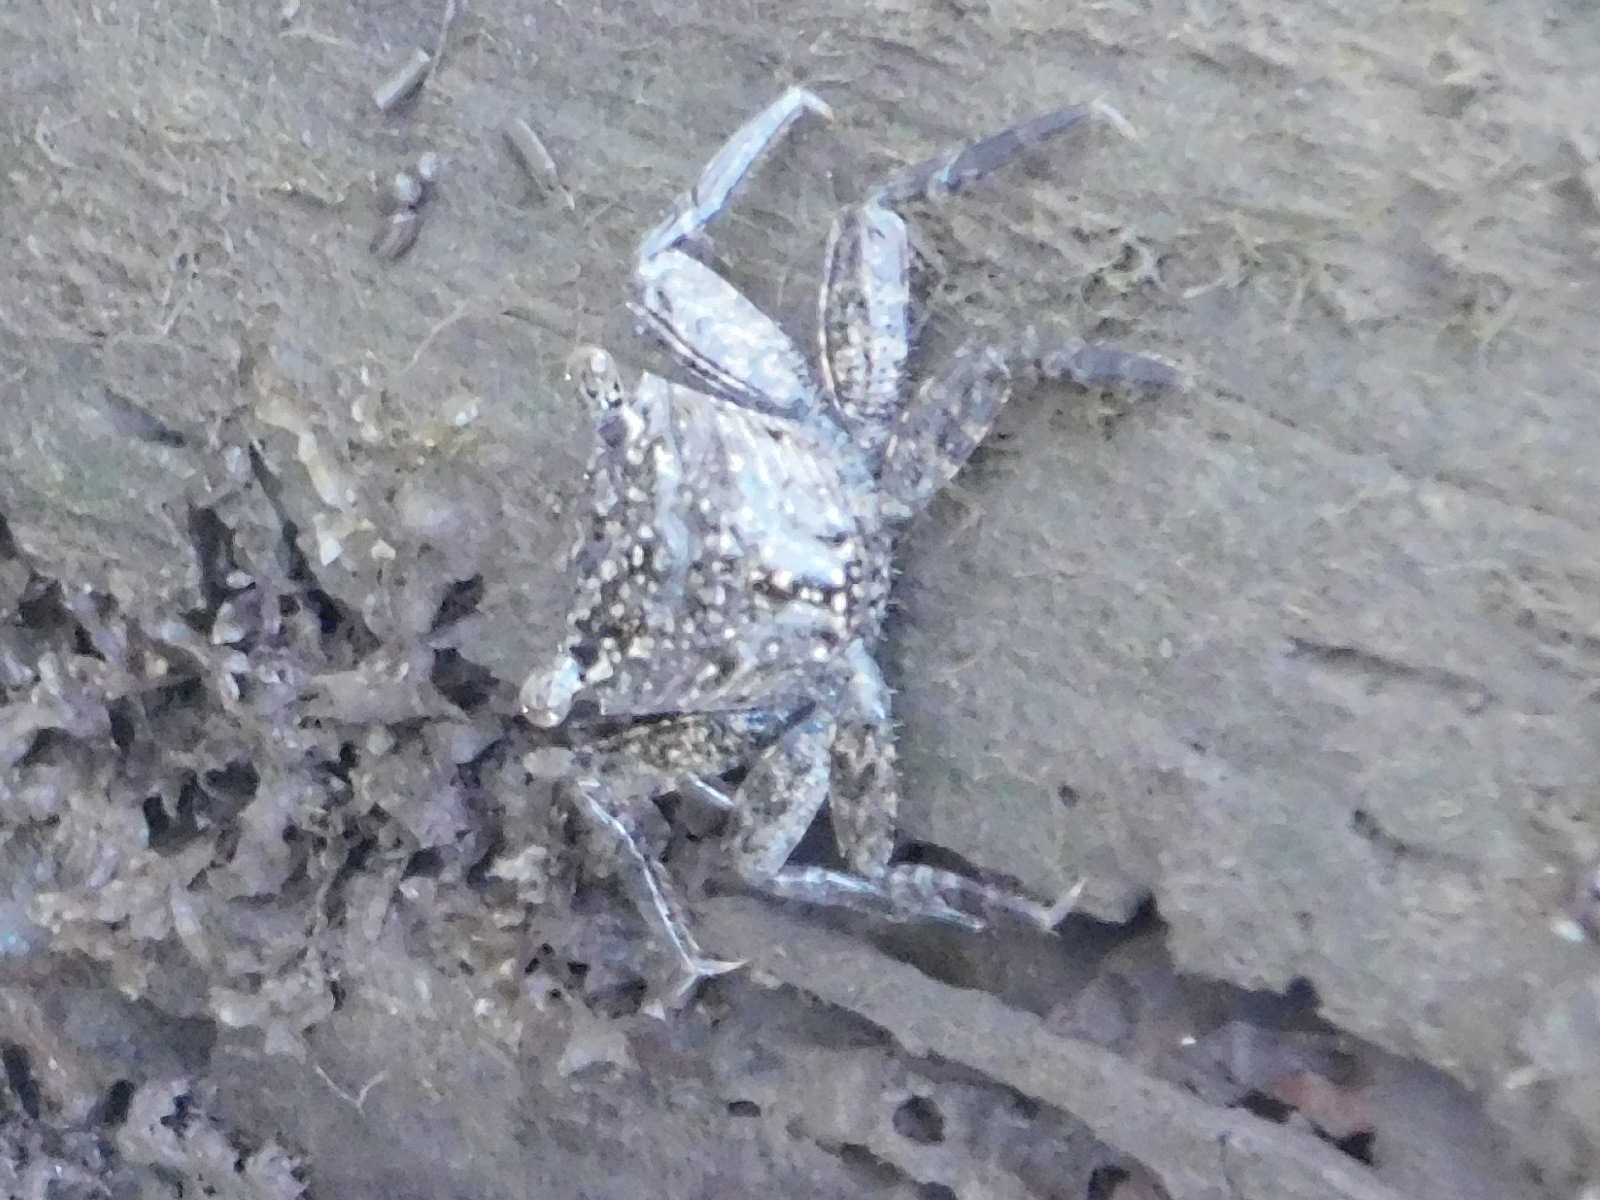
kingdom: Animalia
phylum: Arthropoda
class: Malacostraca
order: Decapoda
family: Sesarmidae
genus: Aratus
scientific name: Aratus pisonii
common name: Mangrove crab
